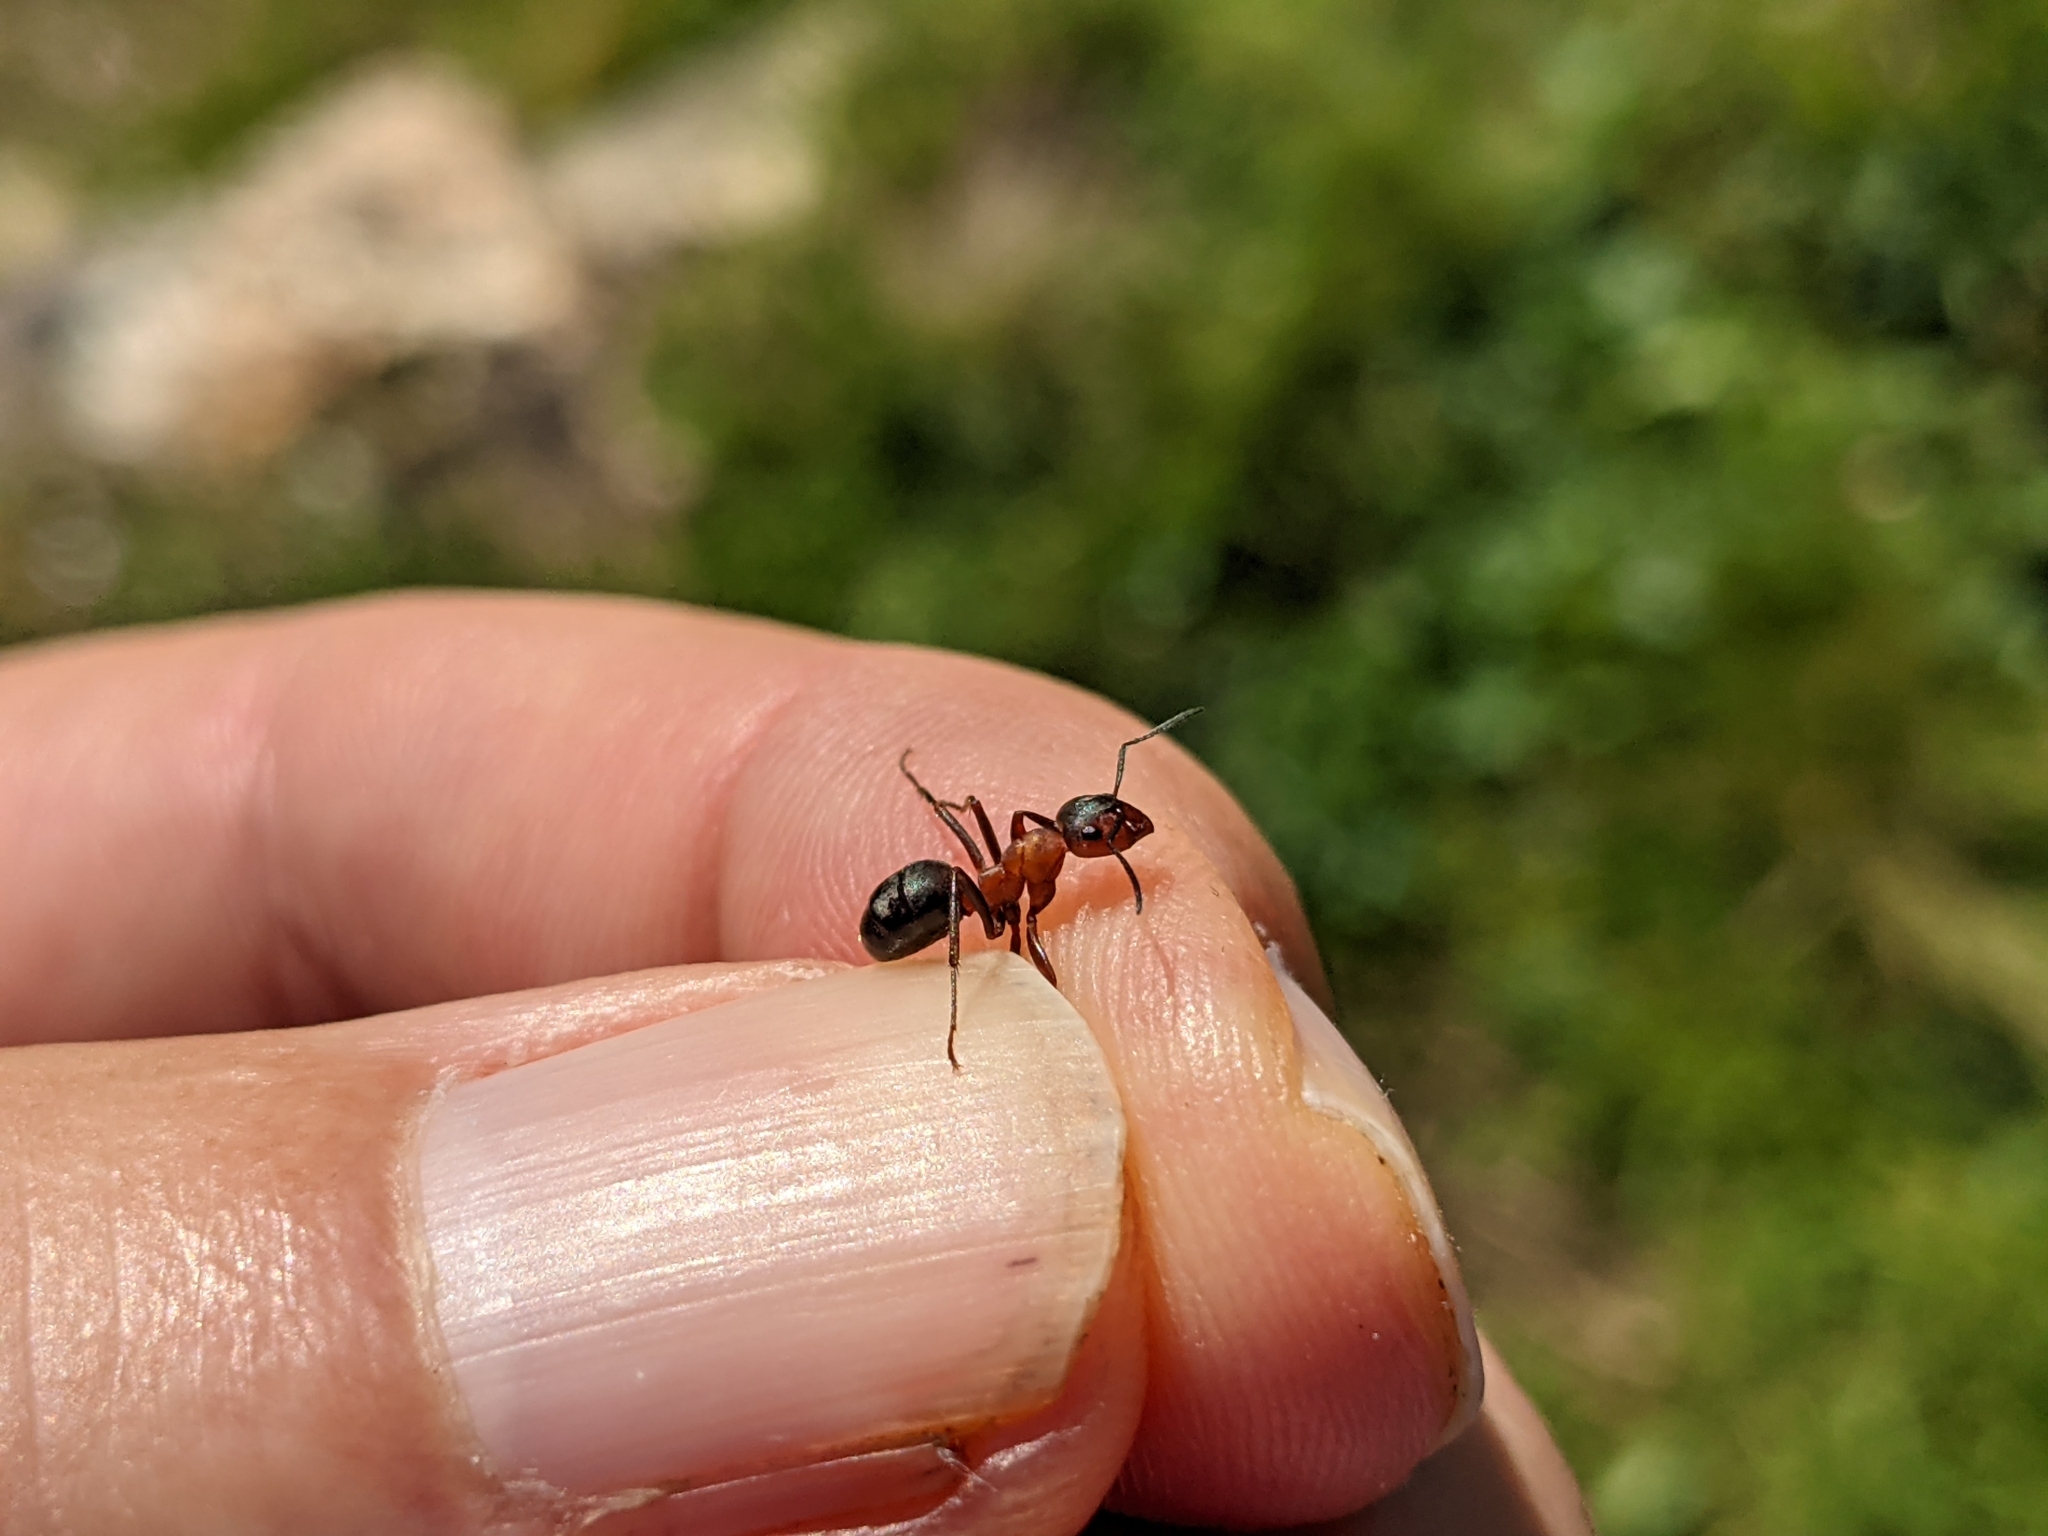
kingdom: Animalia
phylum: Arthropoda
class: Insecta
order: Hymenoptera
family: Formicidae
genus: Formica
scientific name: Formica lugubris
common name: Sinister mound ant
